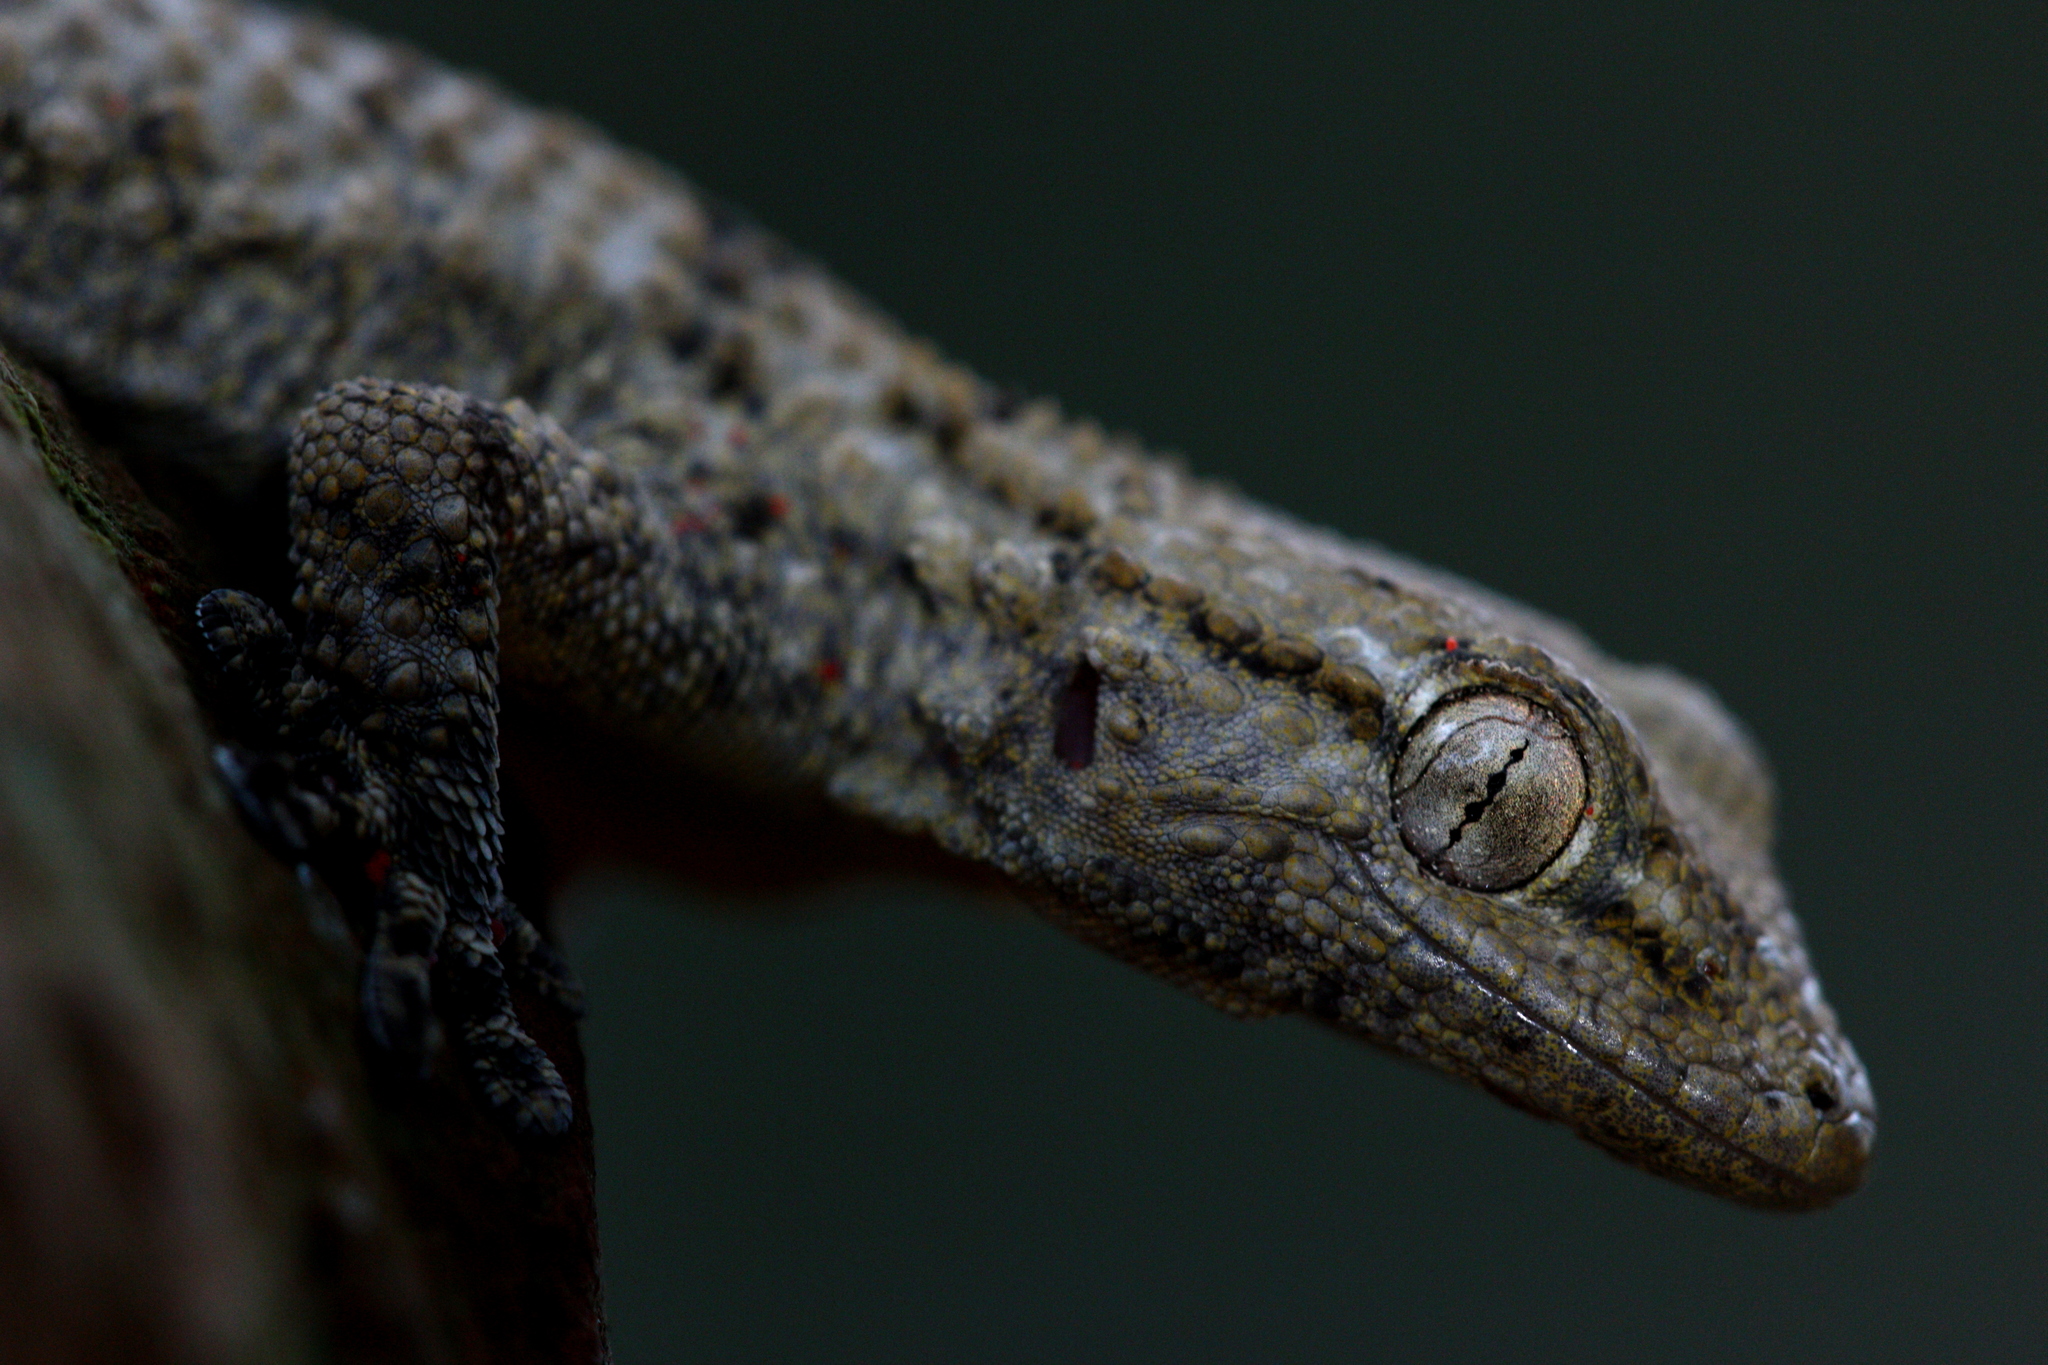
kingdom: Animalia
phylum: Chordata
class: Squamata
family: Phyllodactylidae
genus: Tarentola
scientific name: Tarentola mauritanica
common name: Moorish gecko
